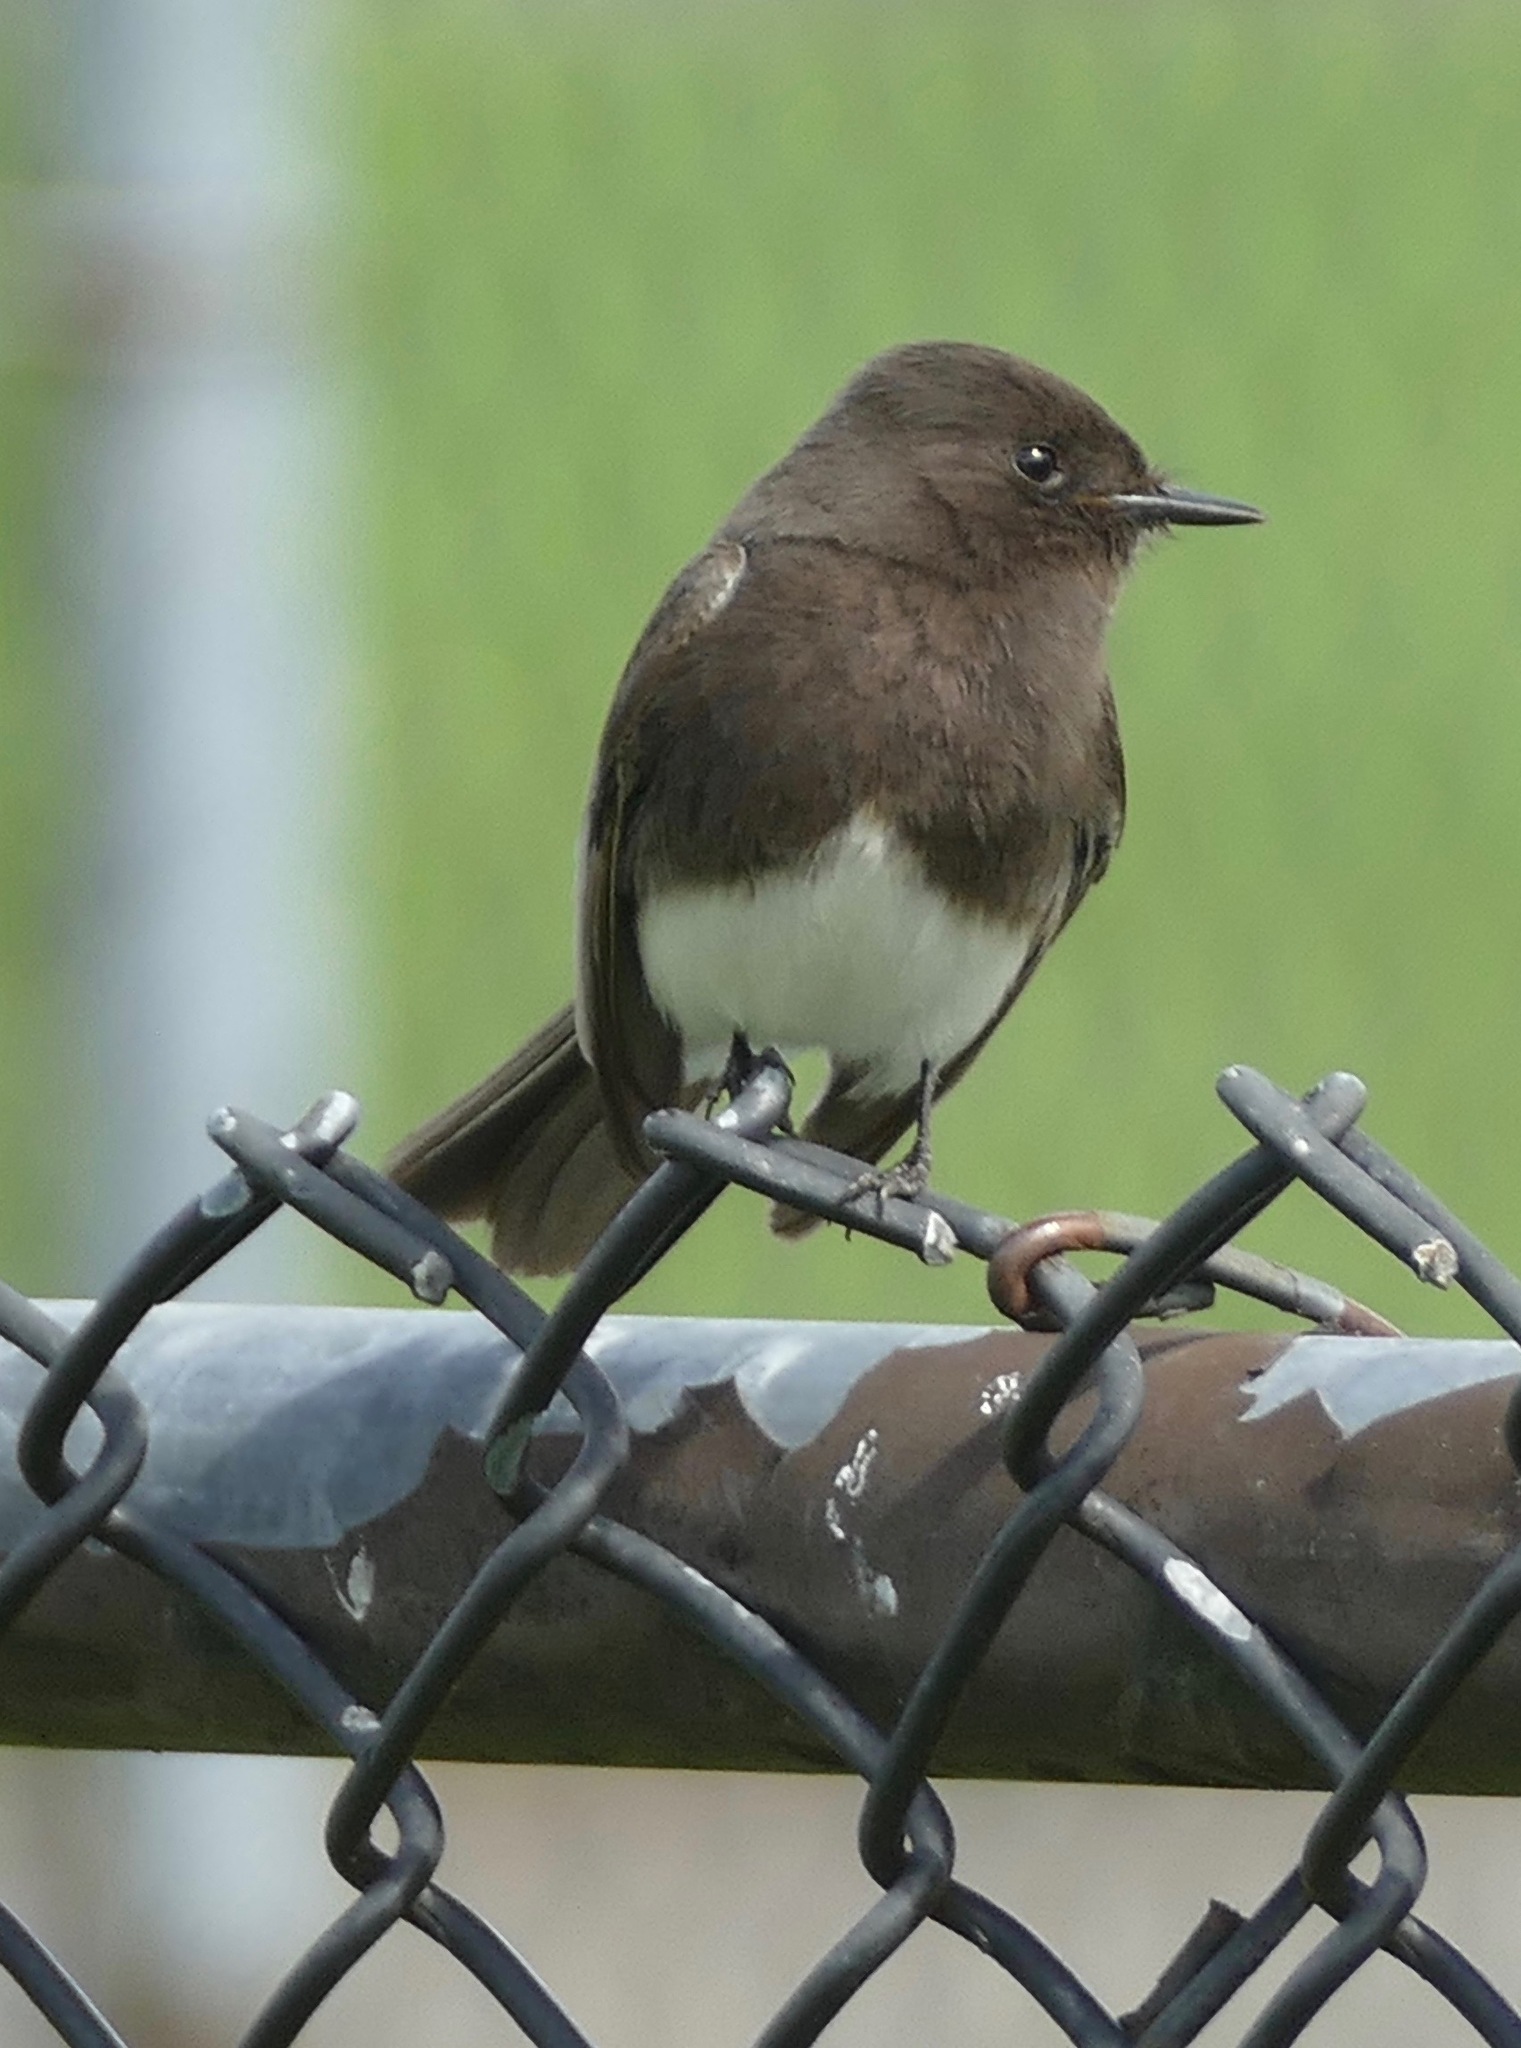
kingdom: Animalia
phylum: Chordata
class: Aves
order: Passeriformes
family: Tyrannidae
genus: Sayornis
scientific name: Sayornis nigricans
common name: Black phoebe
